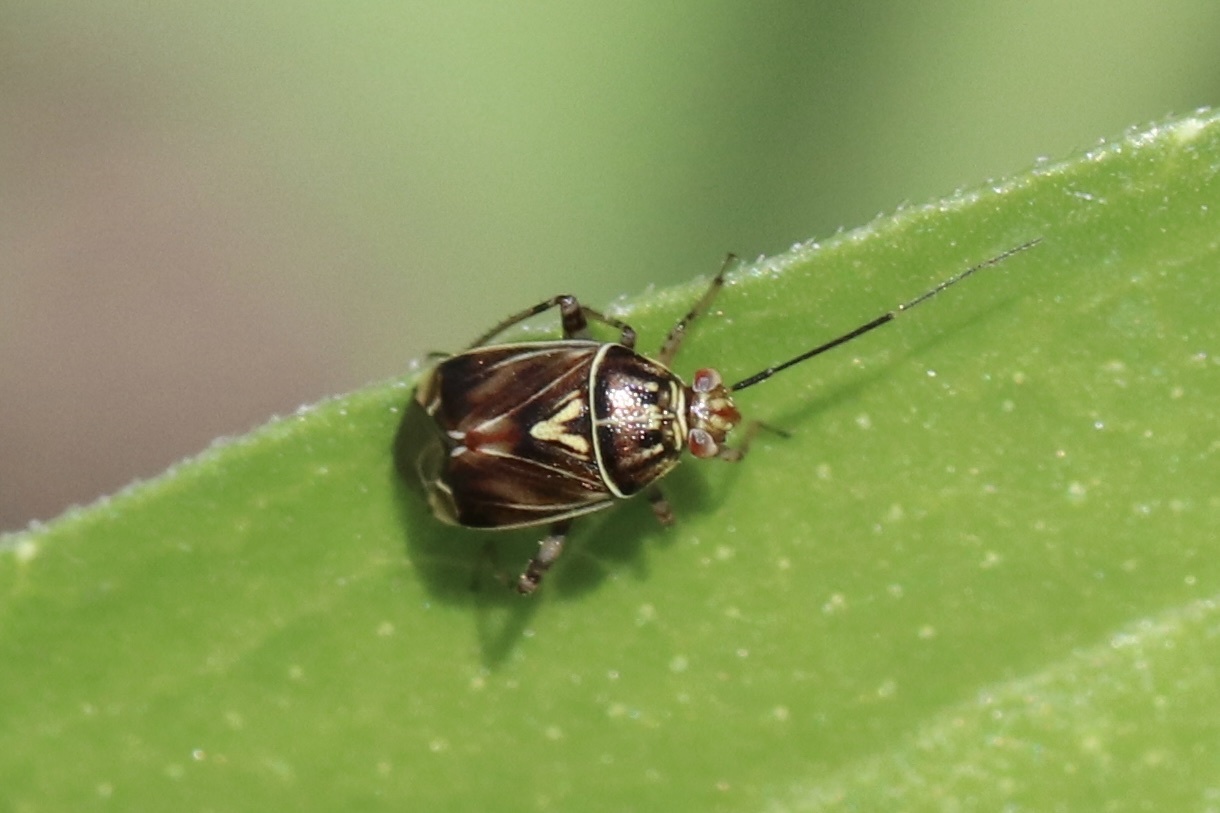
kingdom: Animalia
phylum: Arthropoda
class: Insecta
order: Hemiptera
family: Miridae
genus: Lygus
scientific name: Lygus lineolaris
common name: North american tarnished plant bug
